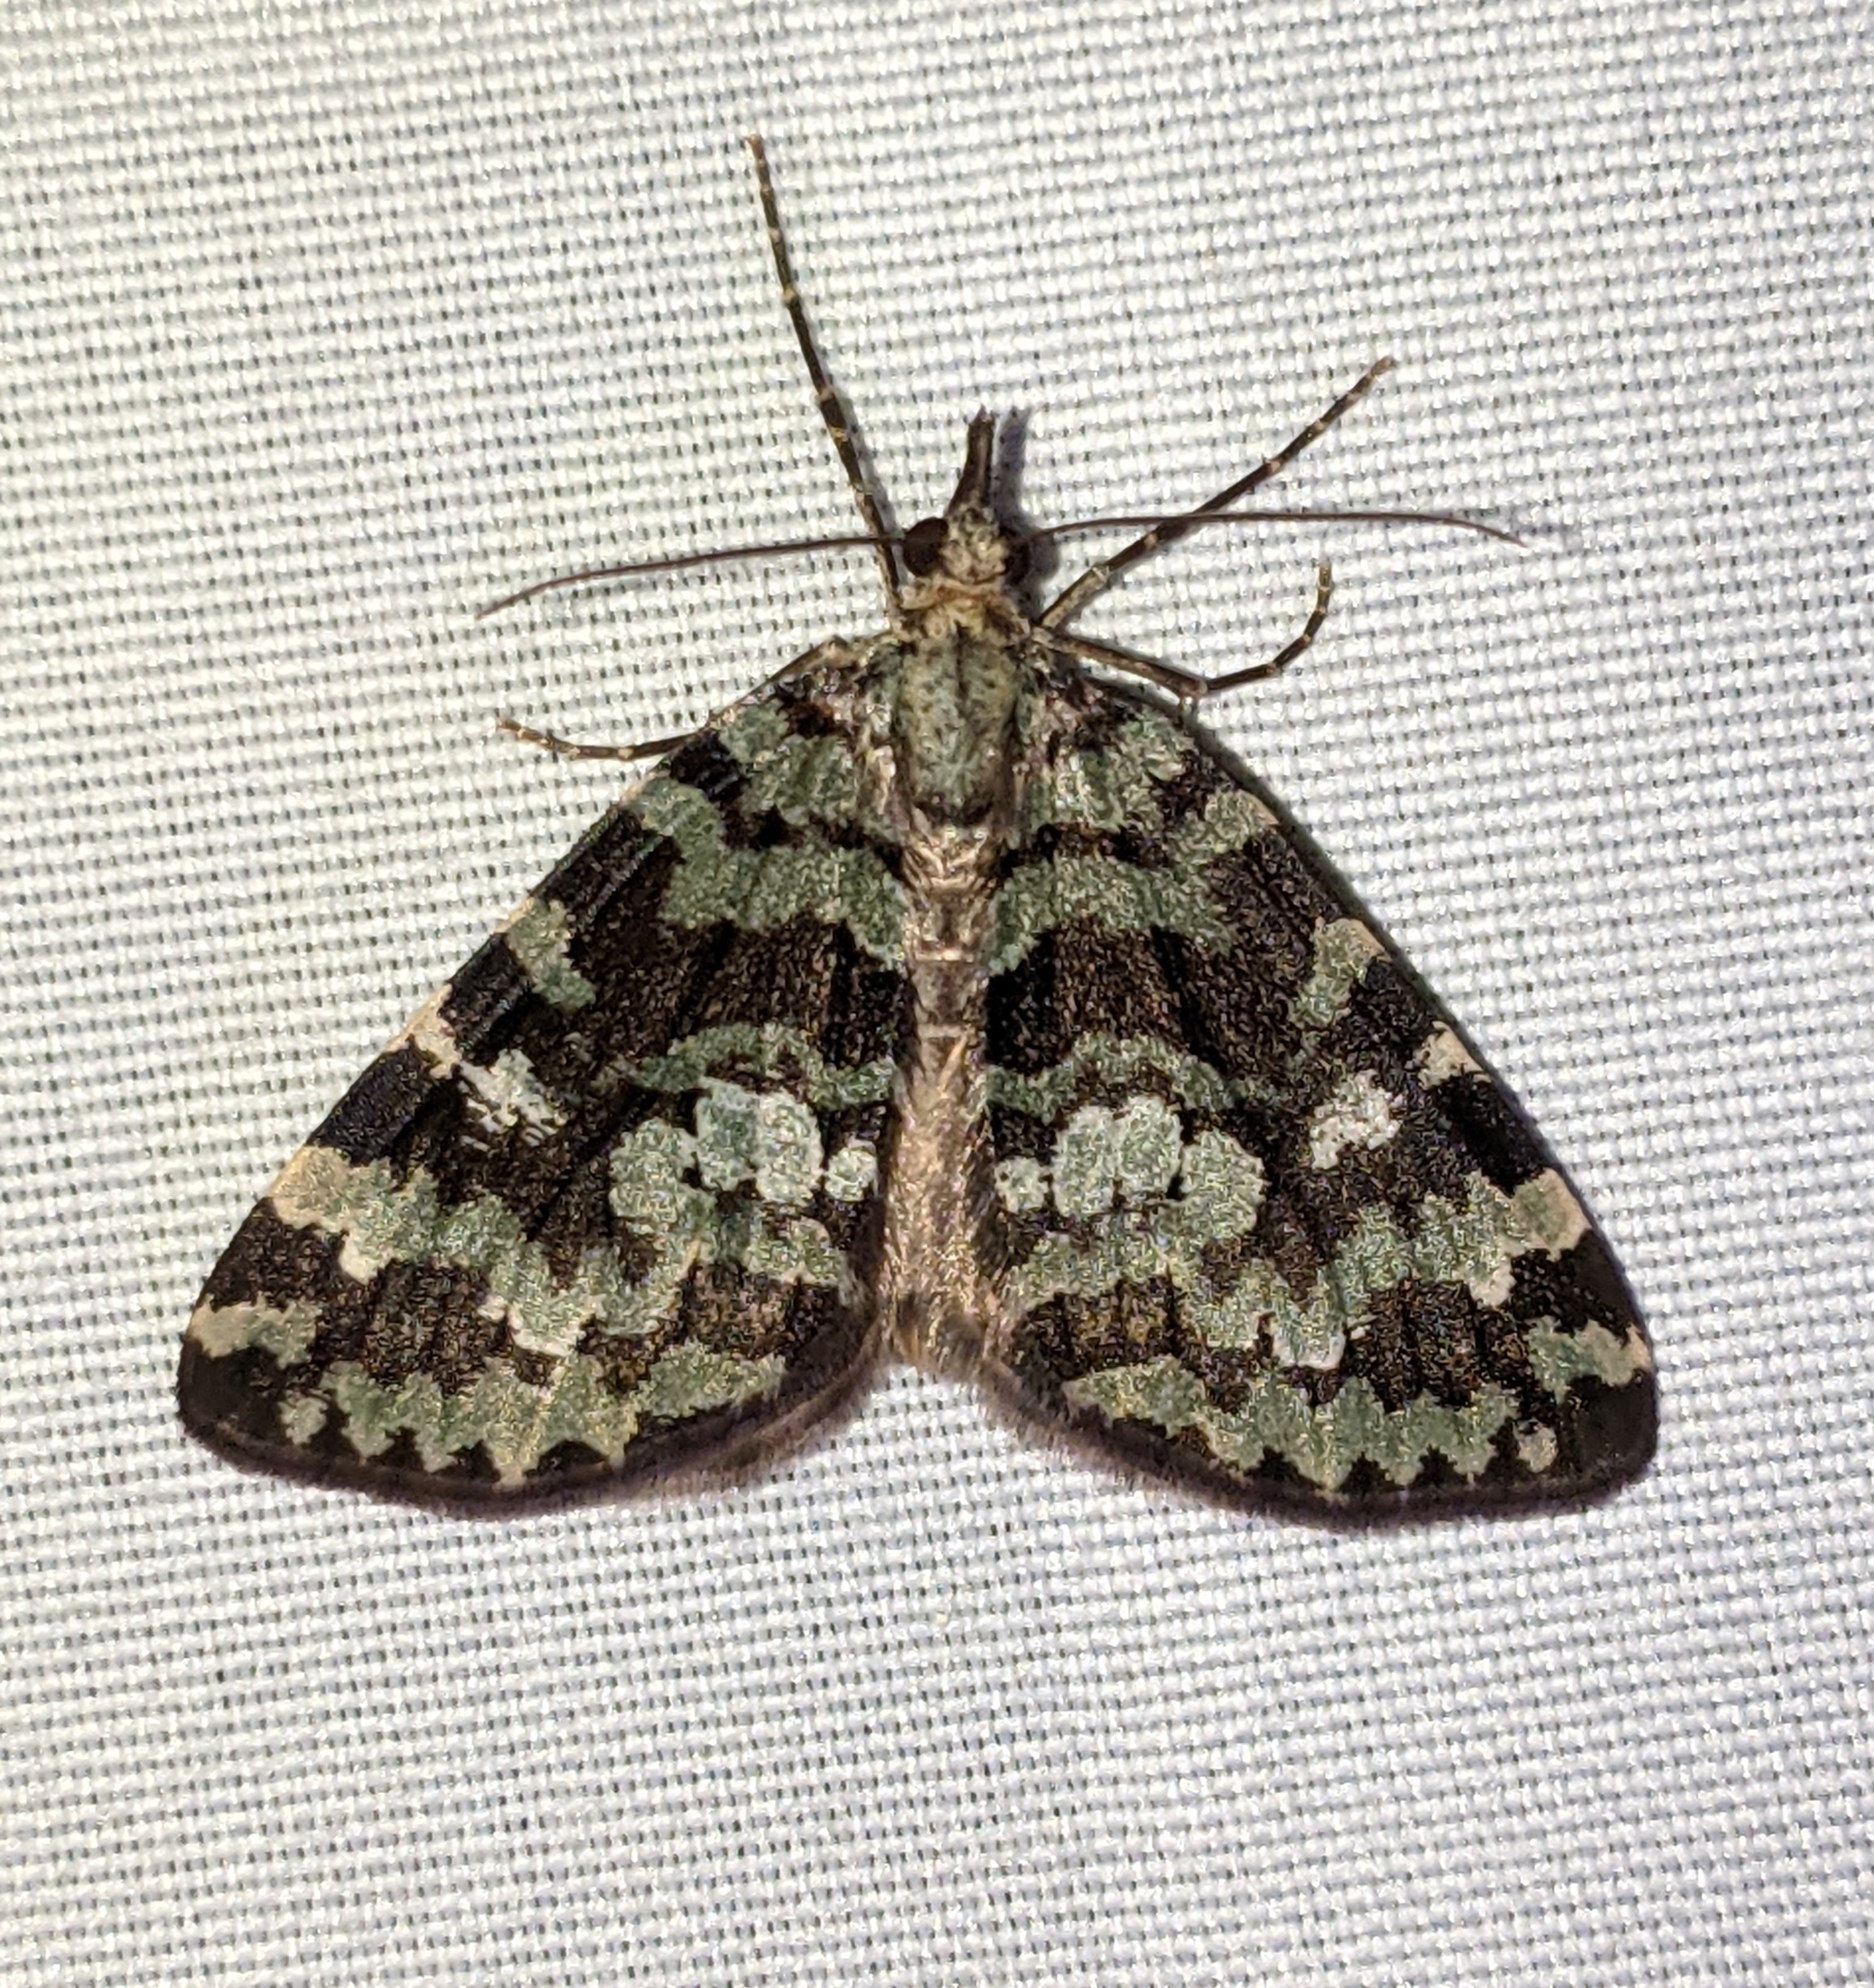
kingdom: Animalia
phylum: Arthropoda
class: Insecta
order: Lepidoptera
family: Geometridae
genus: Hydriomena
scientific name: Hydriomena speciosata
